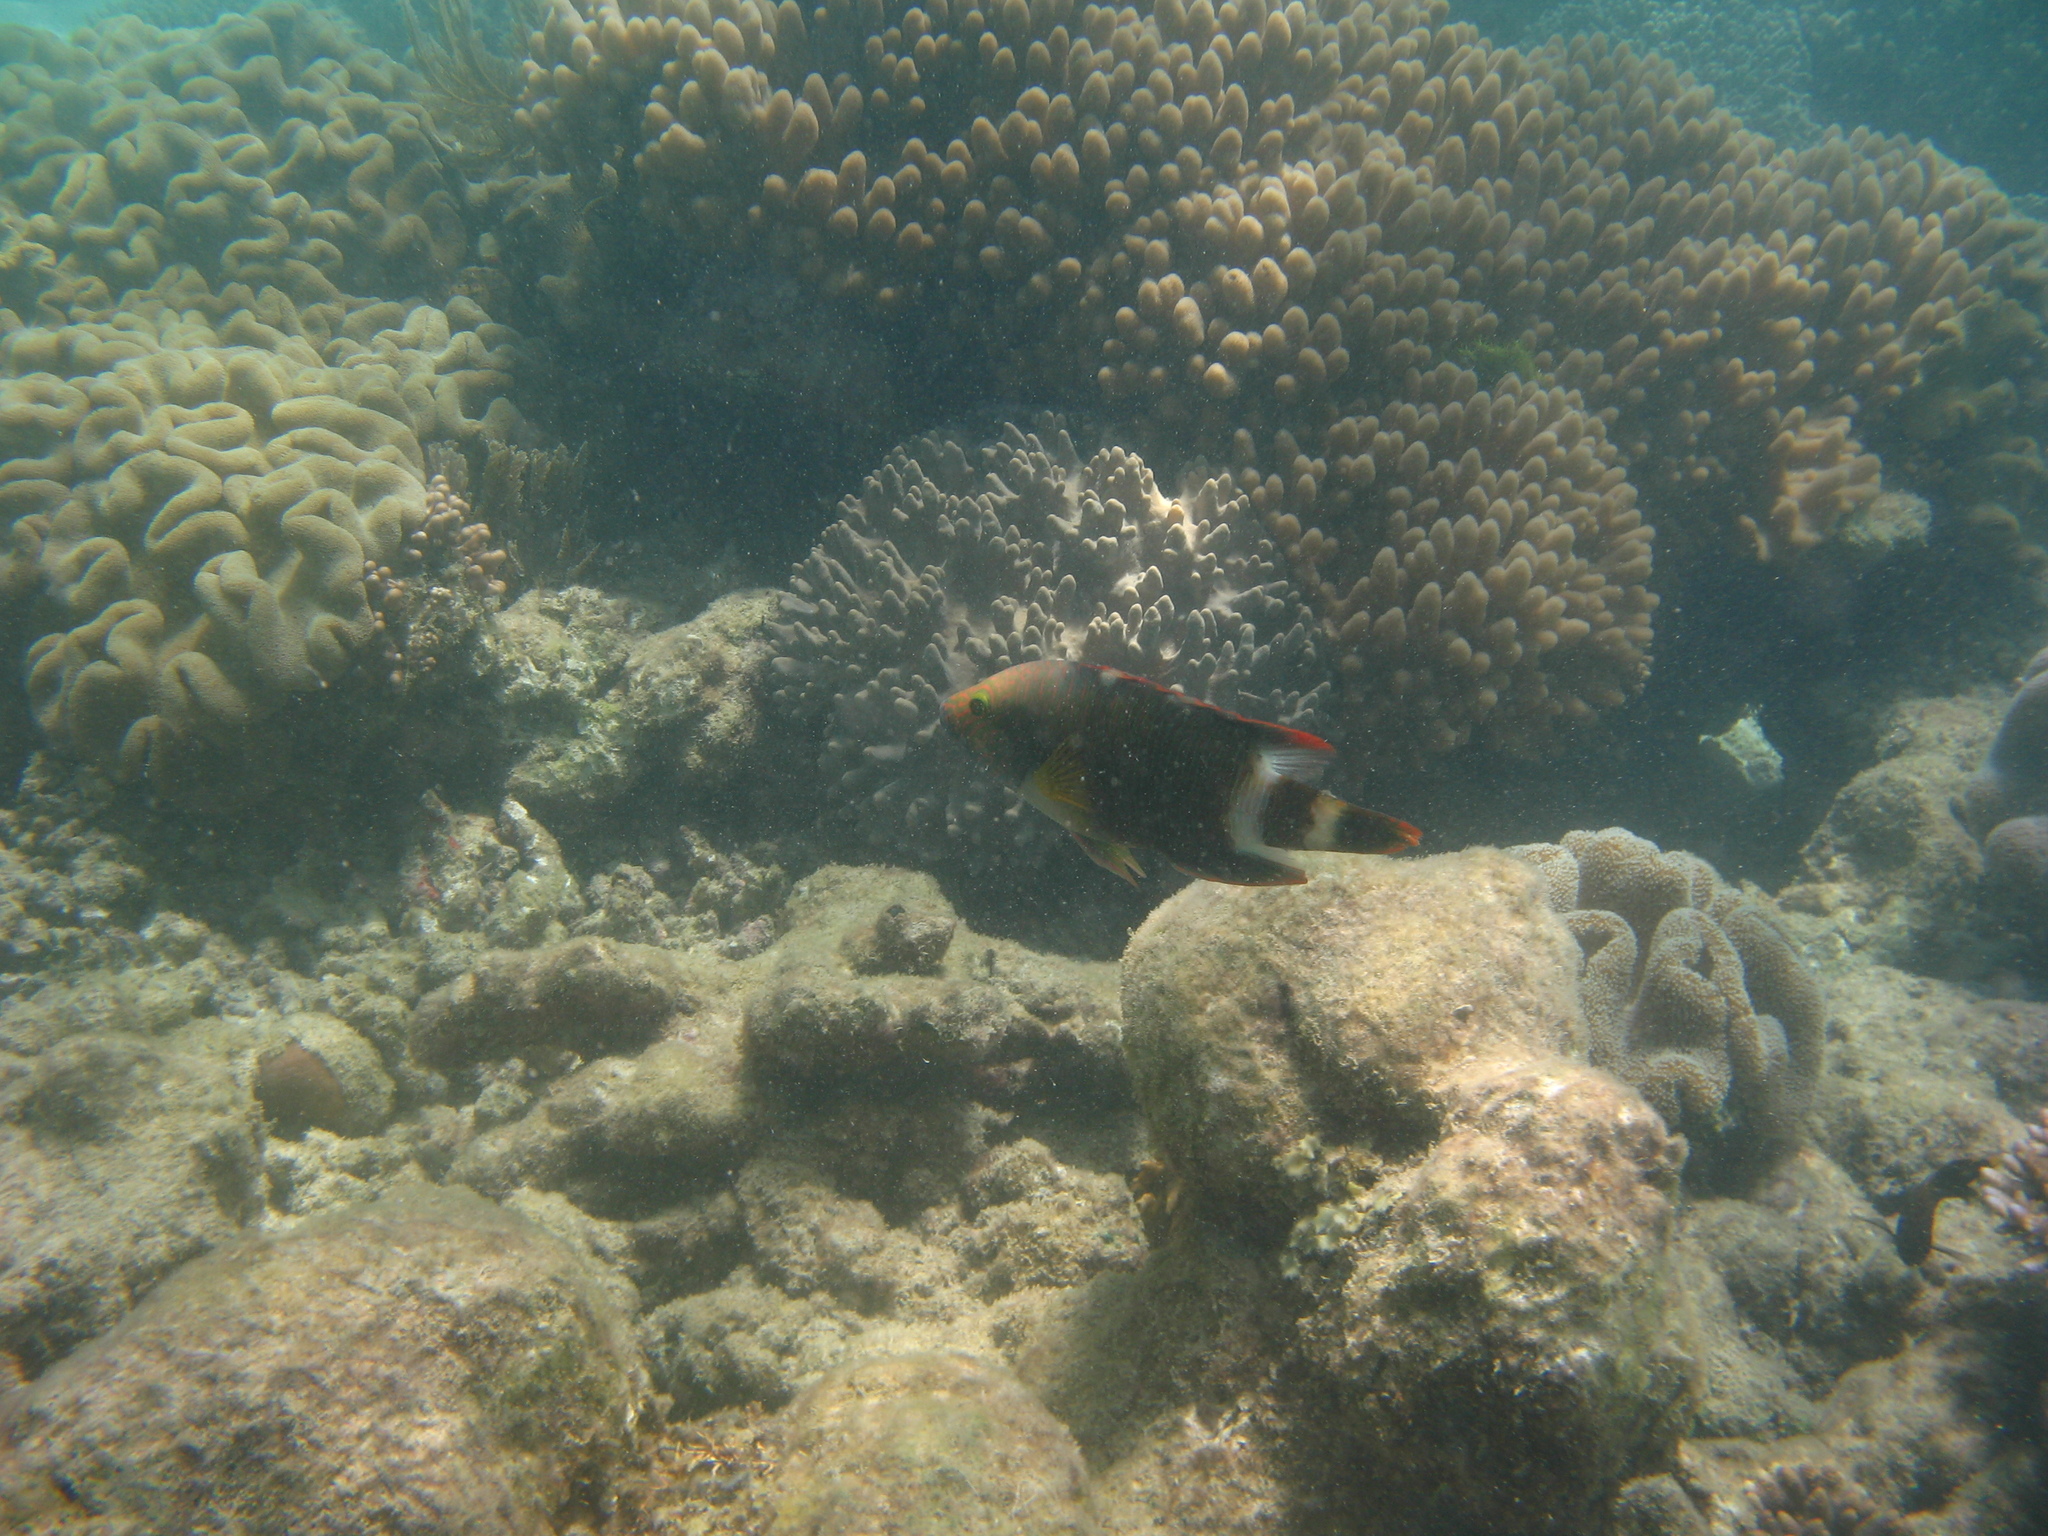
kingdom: Animalia
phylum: Chordata
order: Perciformes
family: Labridae
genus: Cheilinus
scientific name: Cheilinus trilobatus
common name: Tripletail maori wrasse
